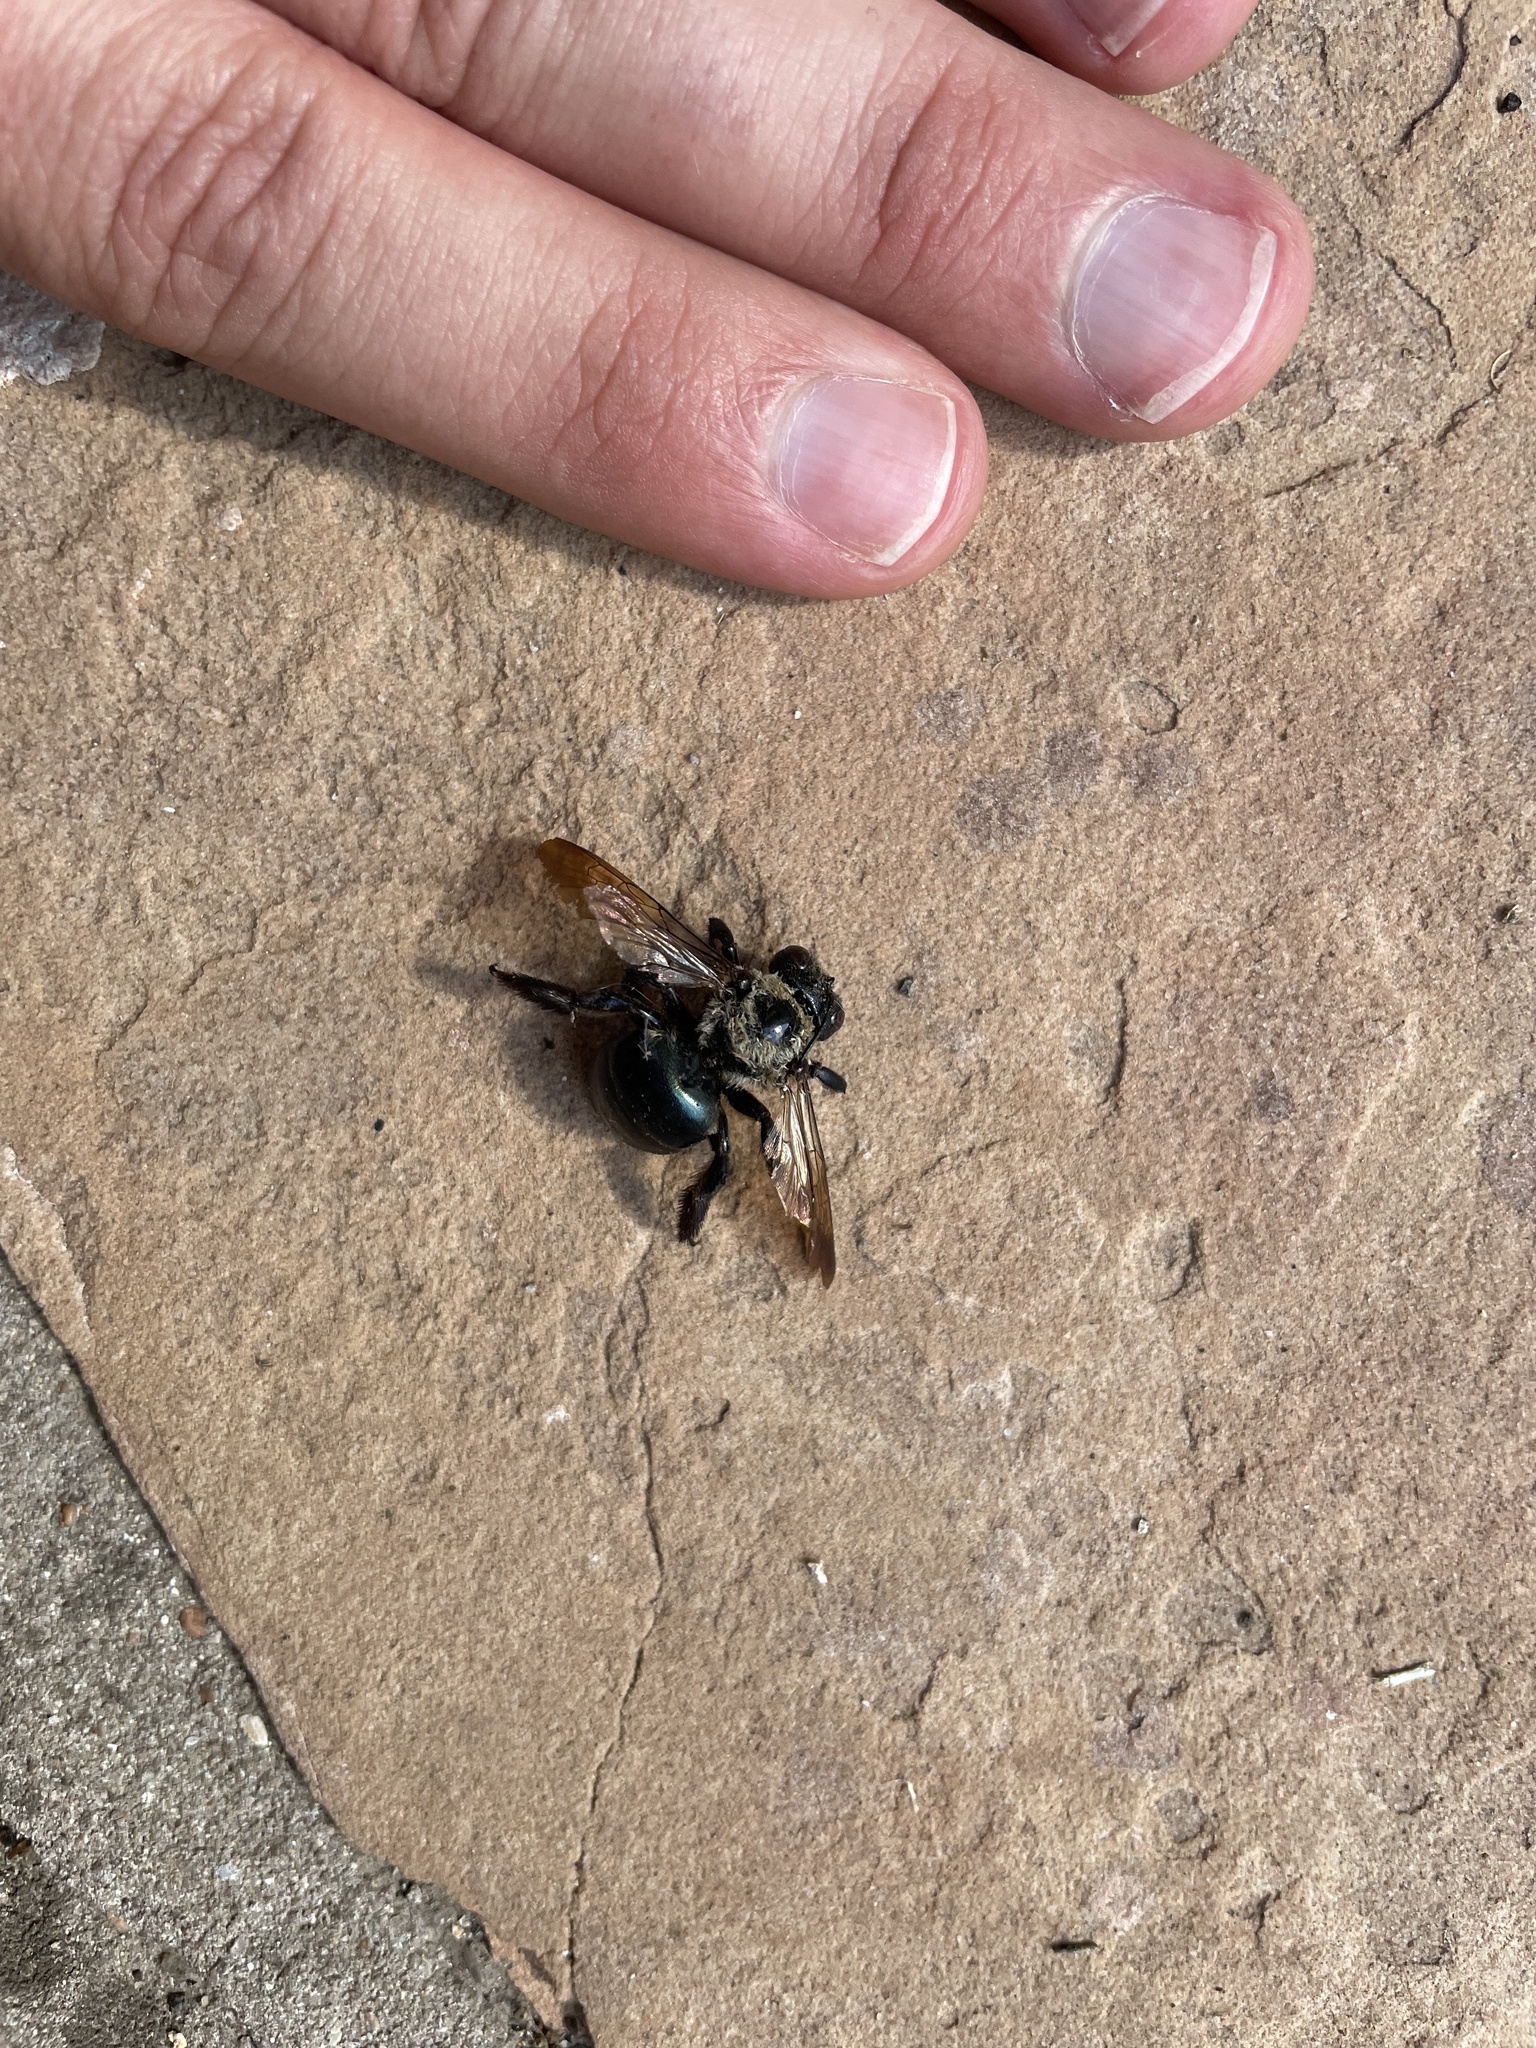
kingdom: Animalia
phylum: Arthropoda
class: Insecta
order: Hymenoptera
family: Apidae
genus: Xylocopa
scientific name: Xylocopa virginica
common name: Carpenter bee
